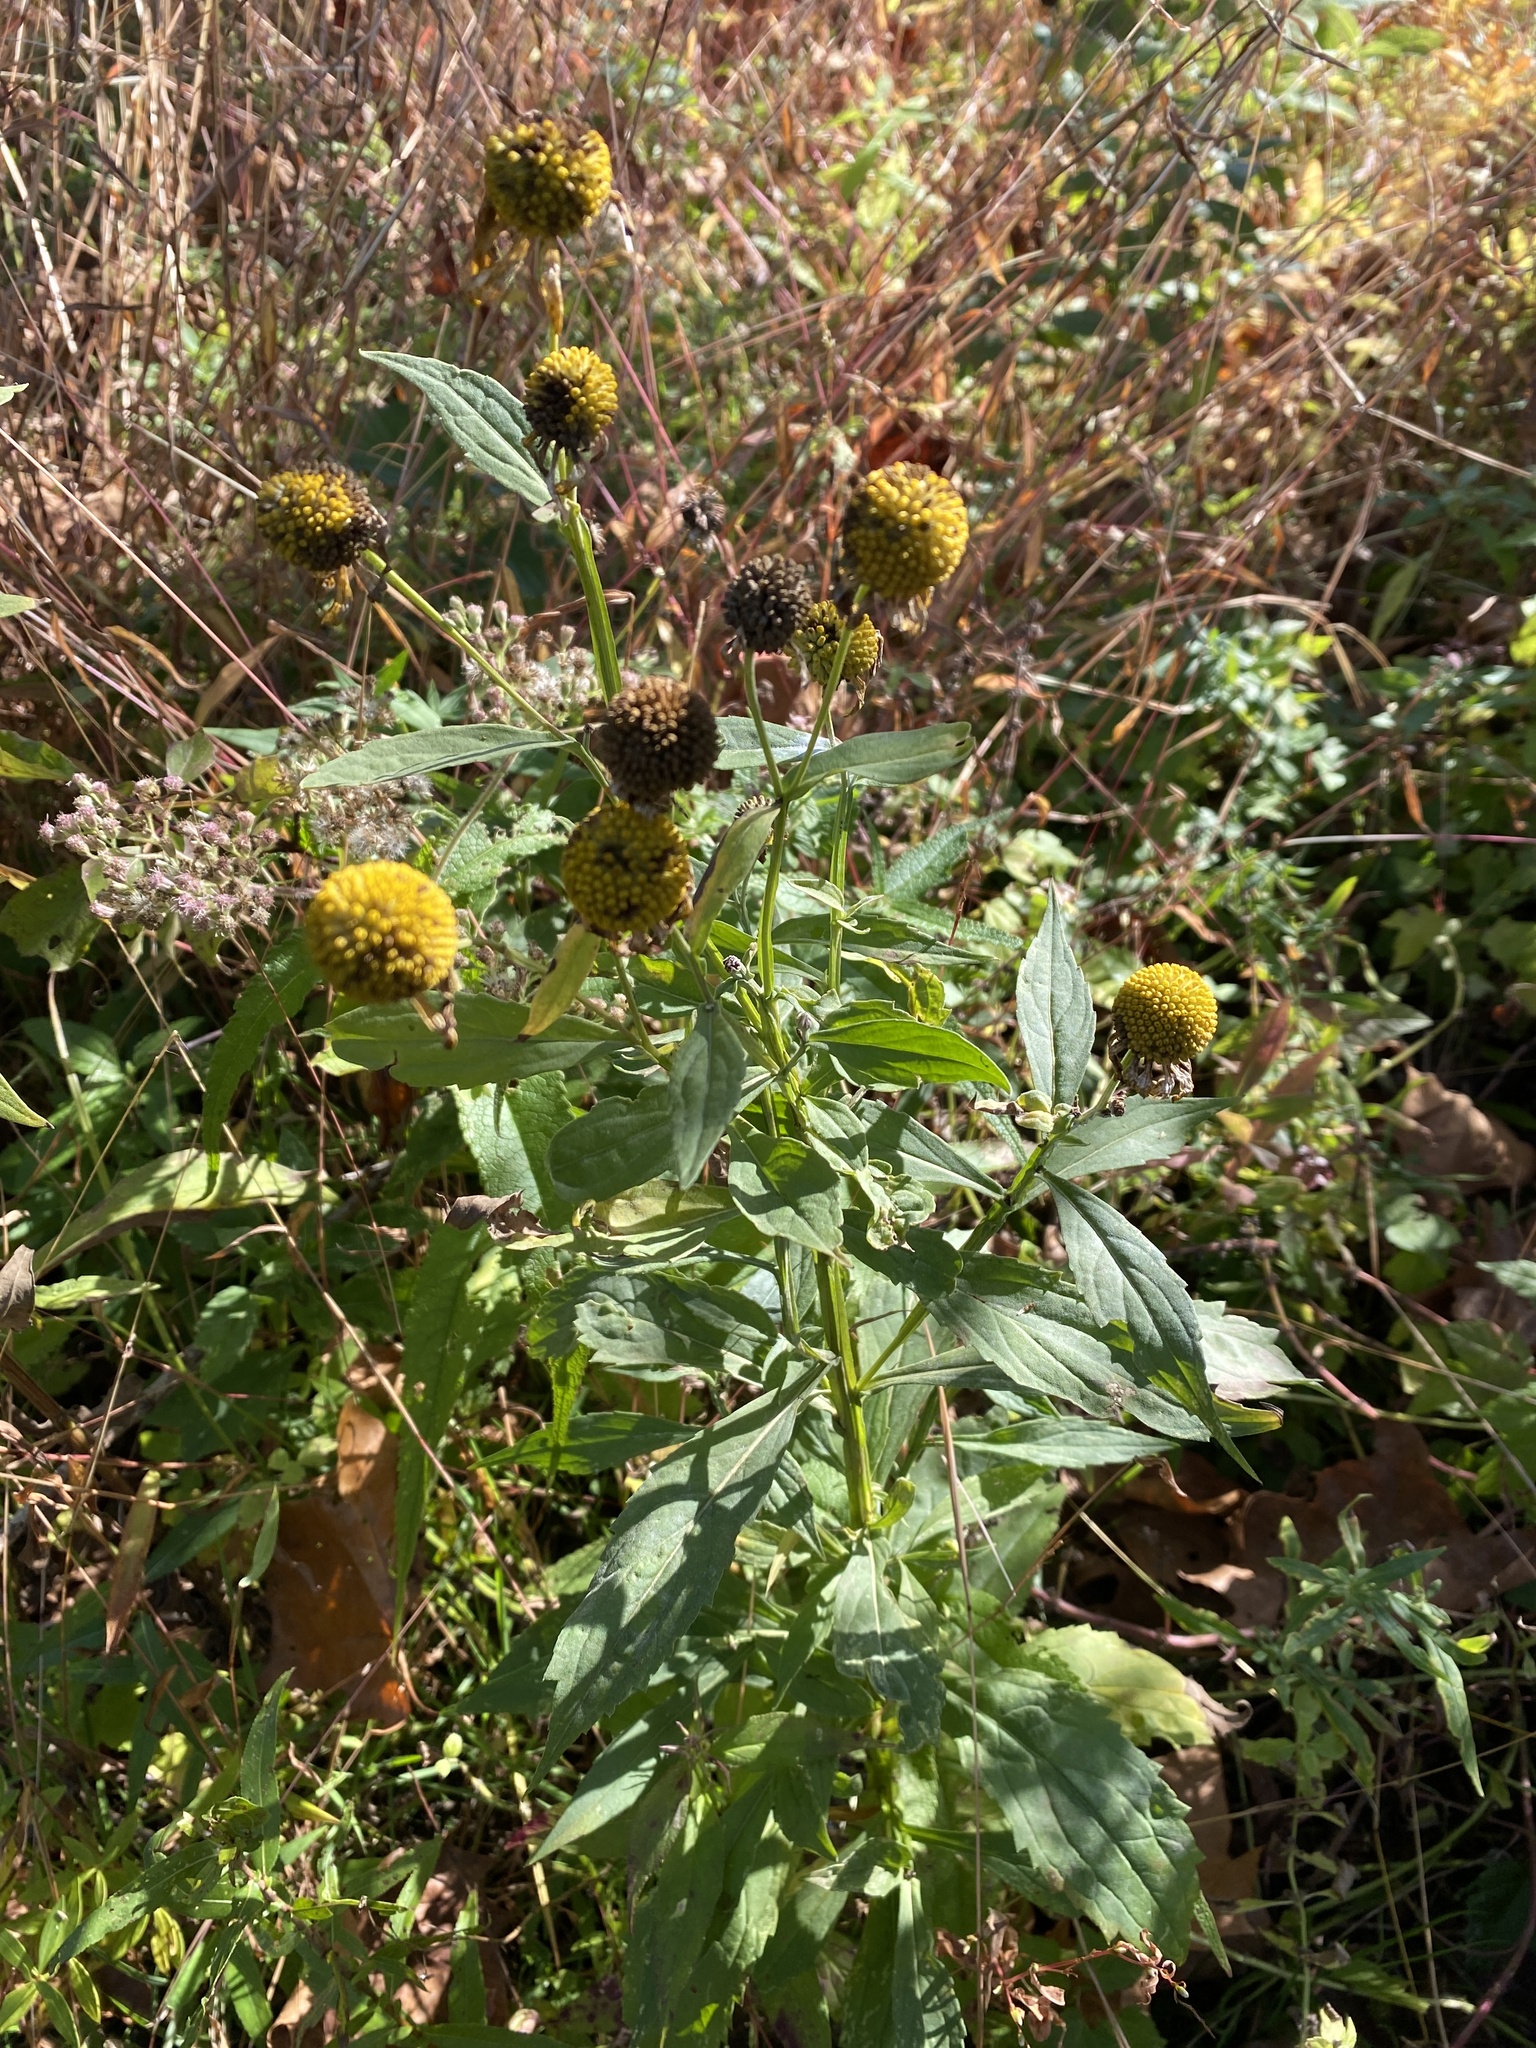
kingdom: Plantae
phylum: Tracheophyta
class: Magnoliopsida
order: Asterales
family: Asteraceae
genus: Helenium
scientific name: Helenium autumnale
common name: Sneezeweed
